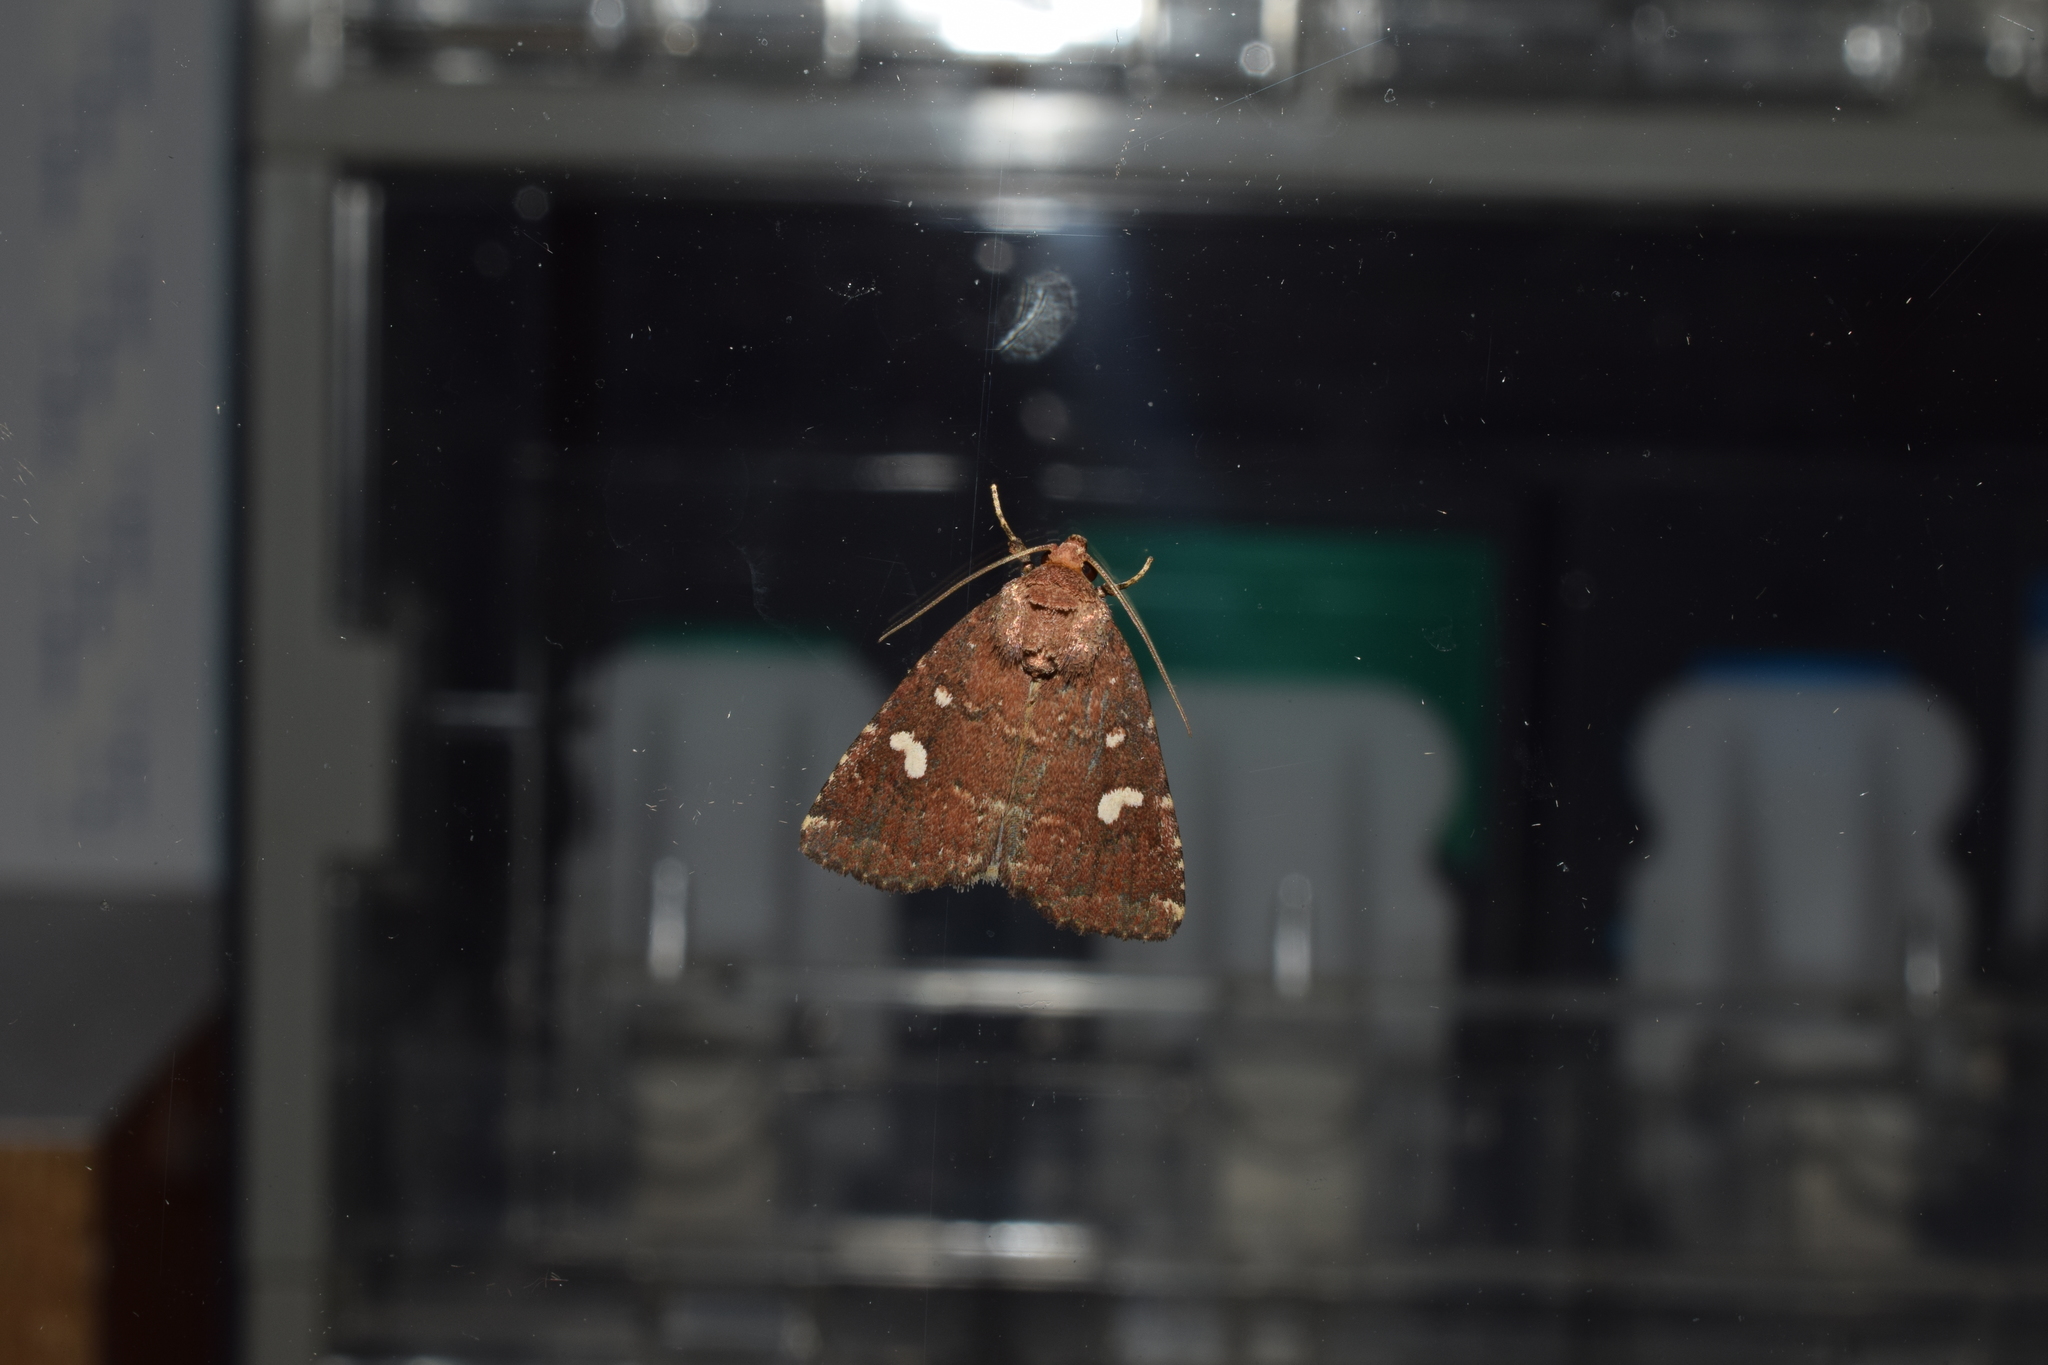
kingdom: Animalia
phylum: Arthropoda
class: Insecta
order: Lepidoptera
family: Noctuidae
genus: Acosmetia
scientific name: Acosmetia biguttula
